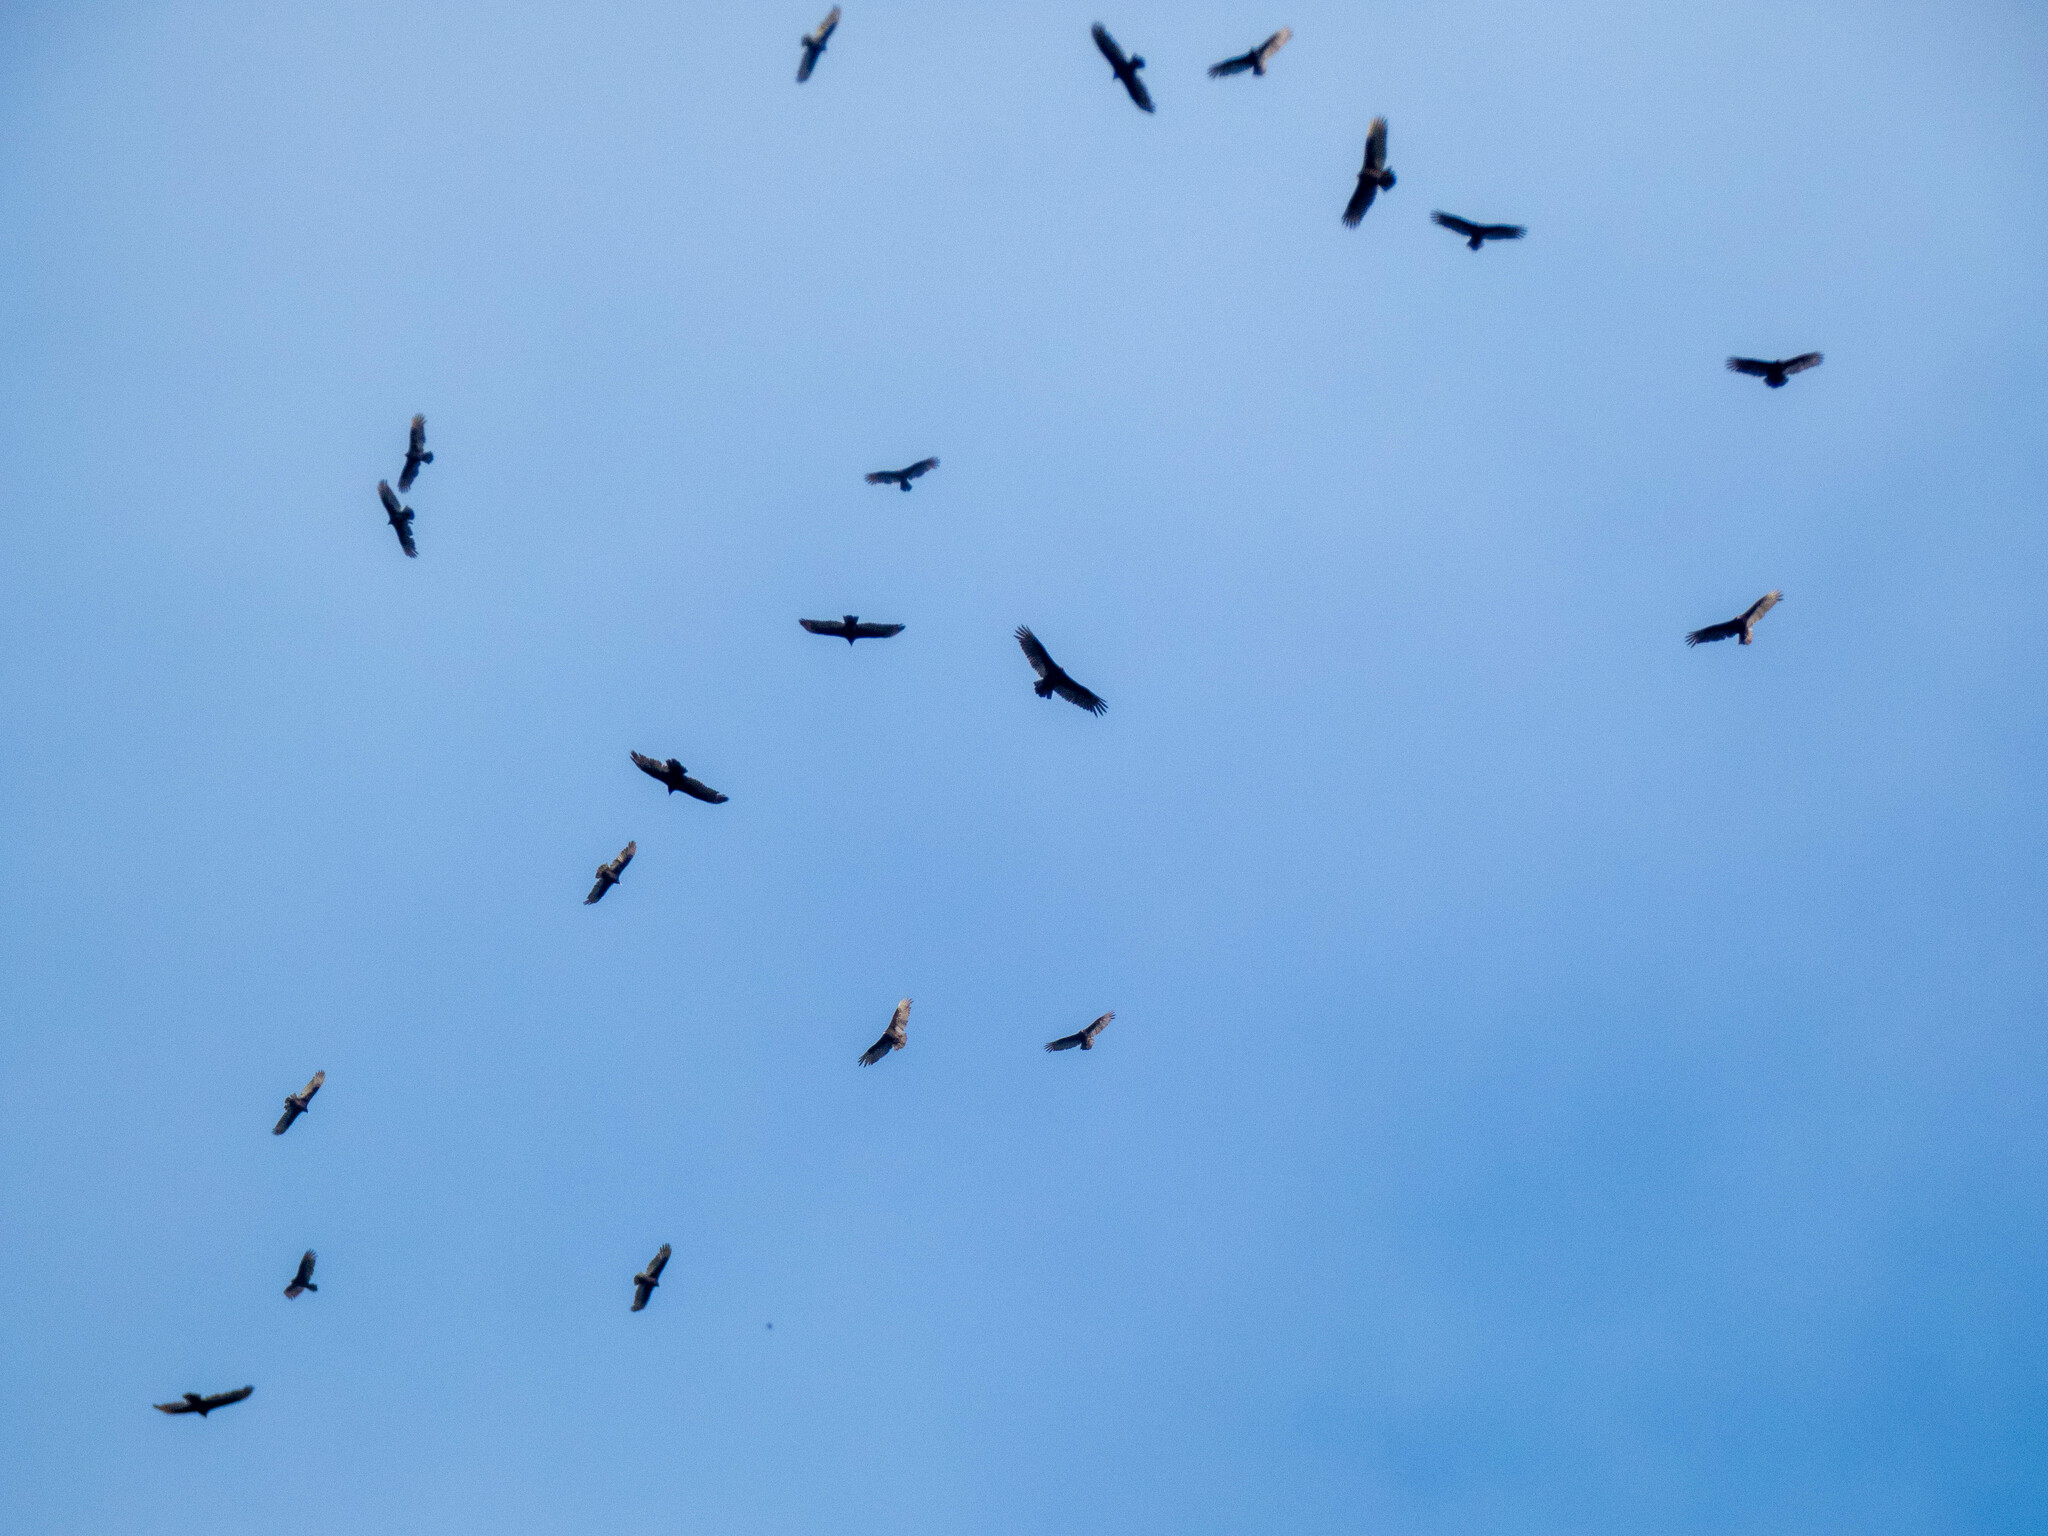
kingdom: Animalia
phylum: Chordata
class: Aves
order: Accipitriformes
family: Cathartidae
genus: Cathartes
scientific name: Cathartes aura
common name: Turkey vulture
